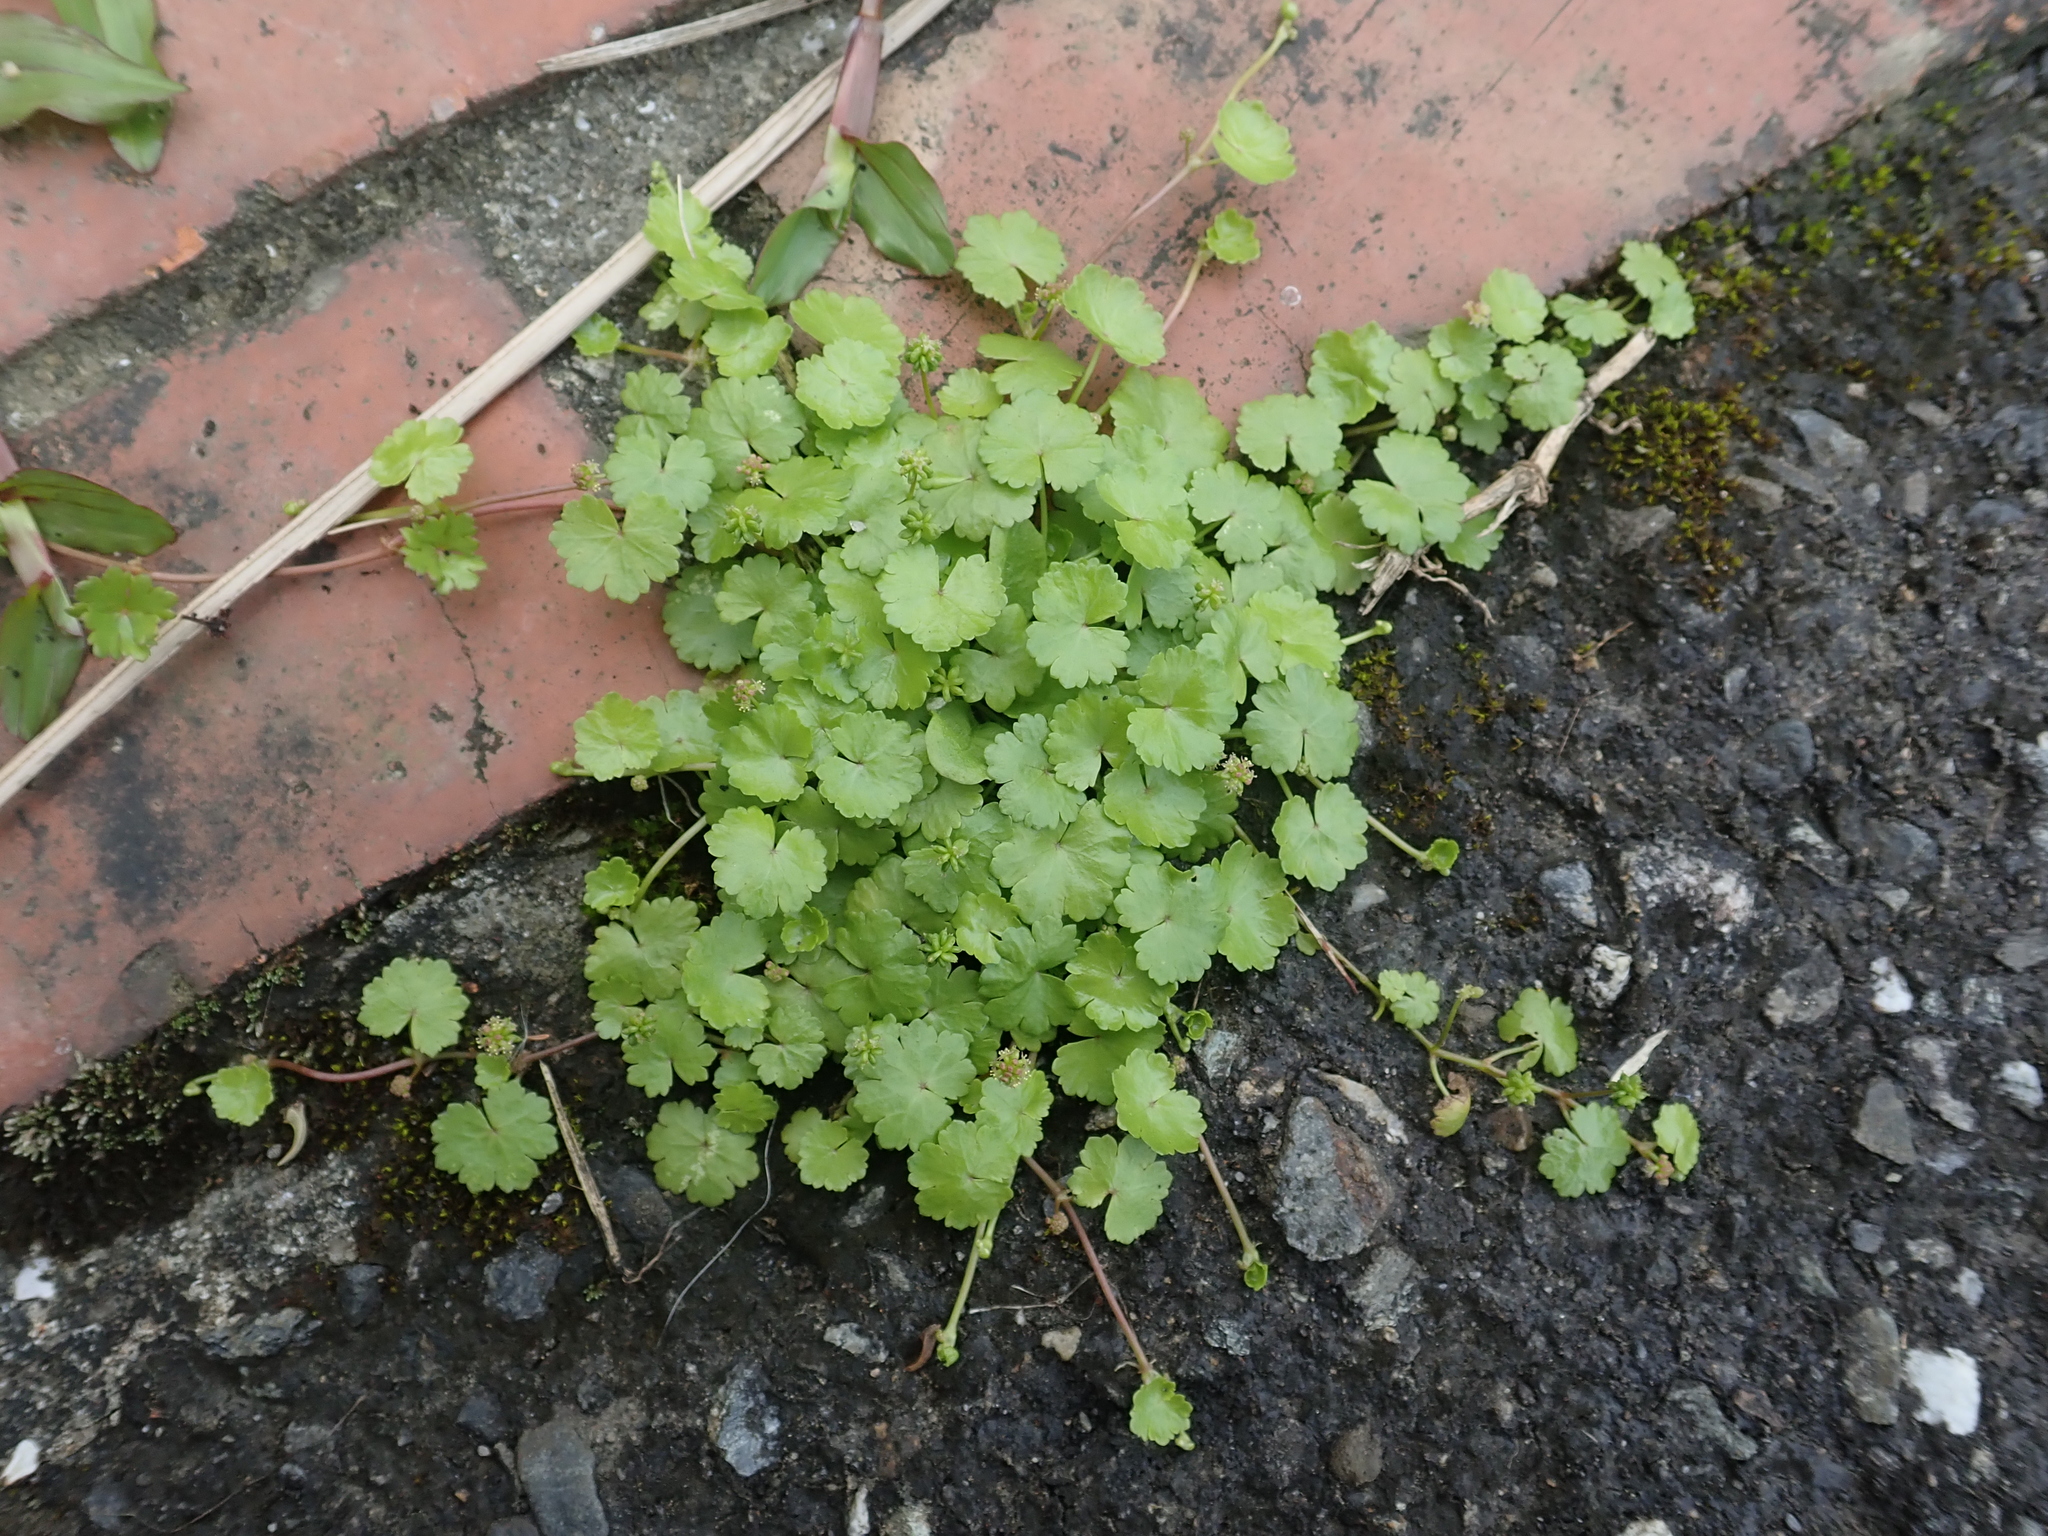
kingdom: Plantae
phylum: Tracheophyta
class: Magnoliopsida
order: Apiales
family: Araliaceae
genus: Hydrocotyle
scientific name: Hydrocotyle sibthorpioides
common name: Lawn marshpennywort
